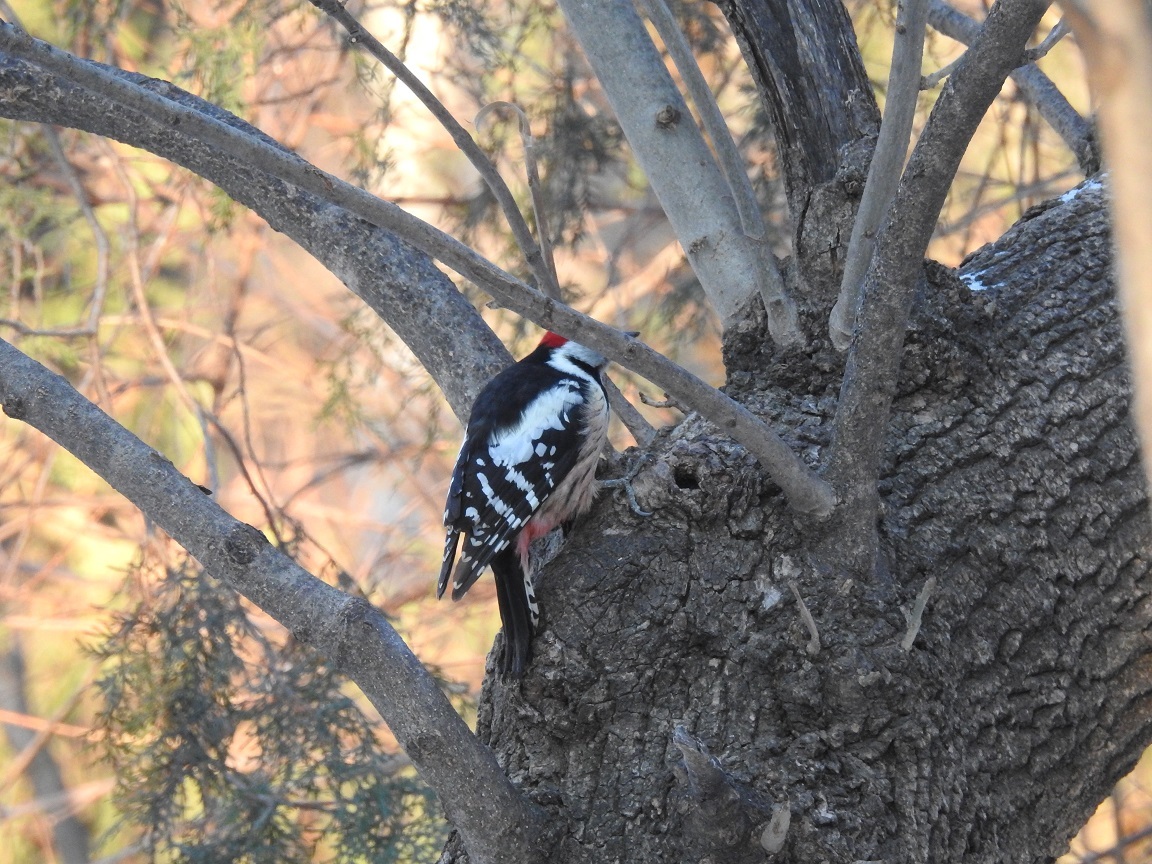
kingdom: Animalia
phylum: Chordata
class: Aves
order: Piciformes
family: Picidae
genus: Dendrocoptes
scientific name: Dendrocoptes medius
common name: Middle spotted woodpecker
